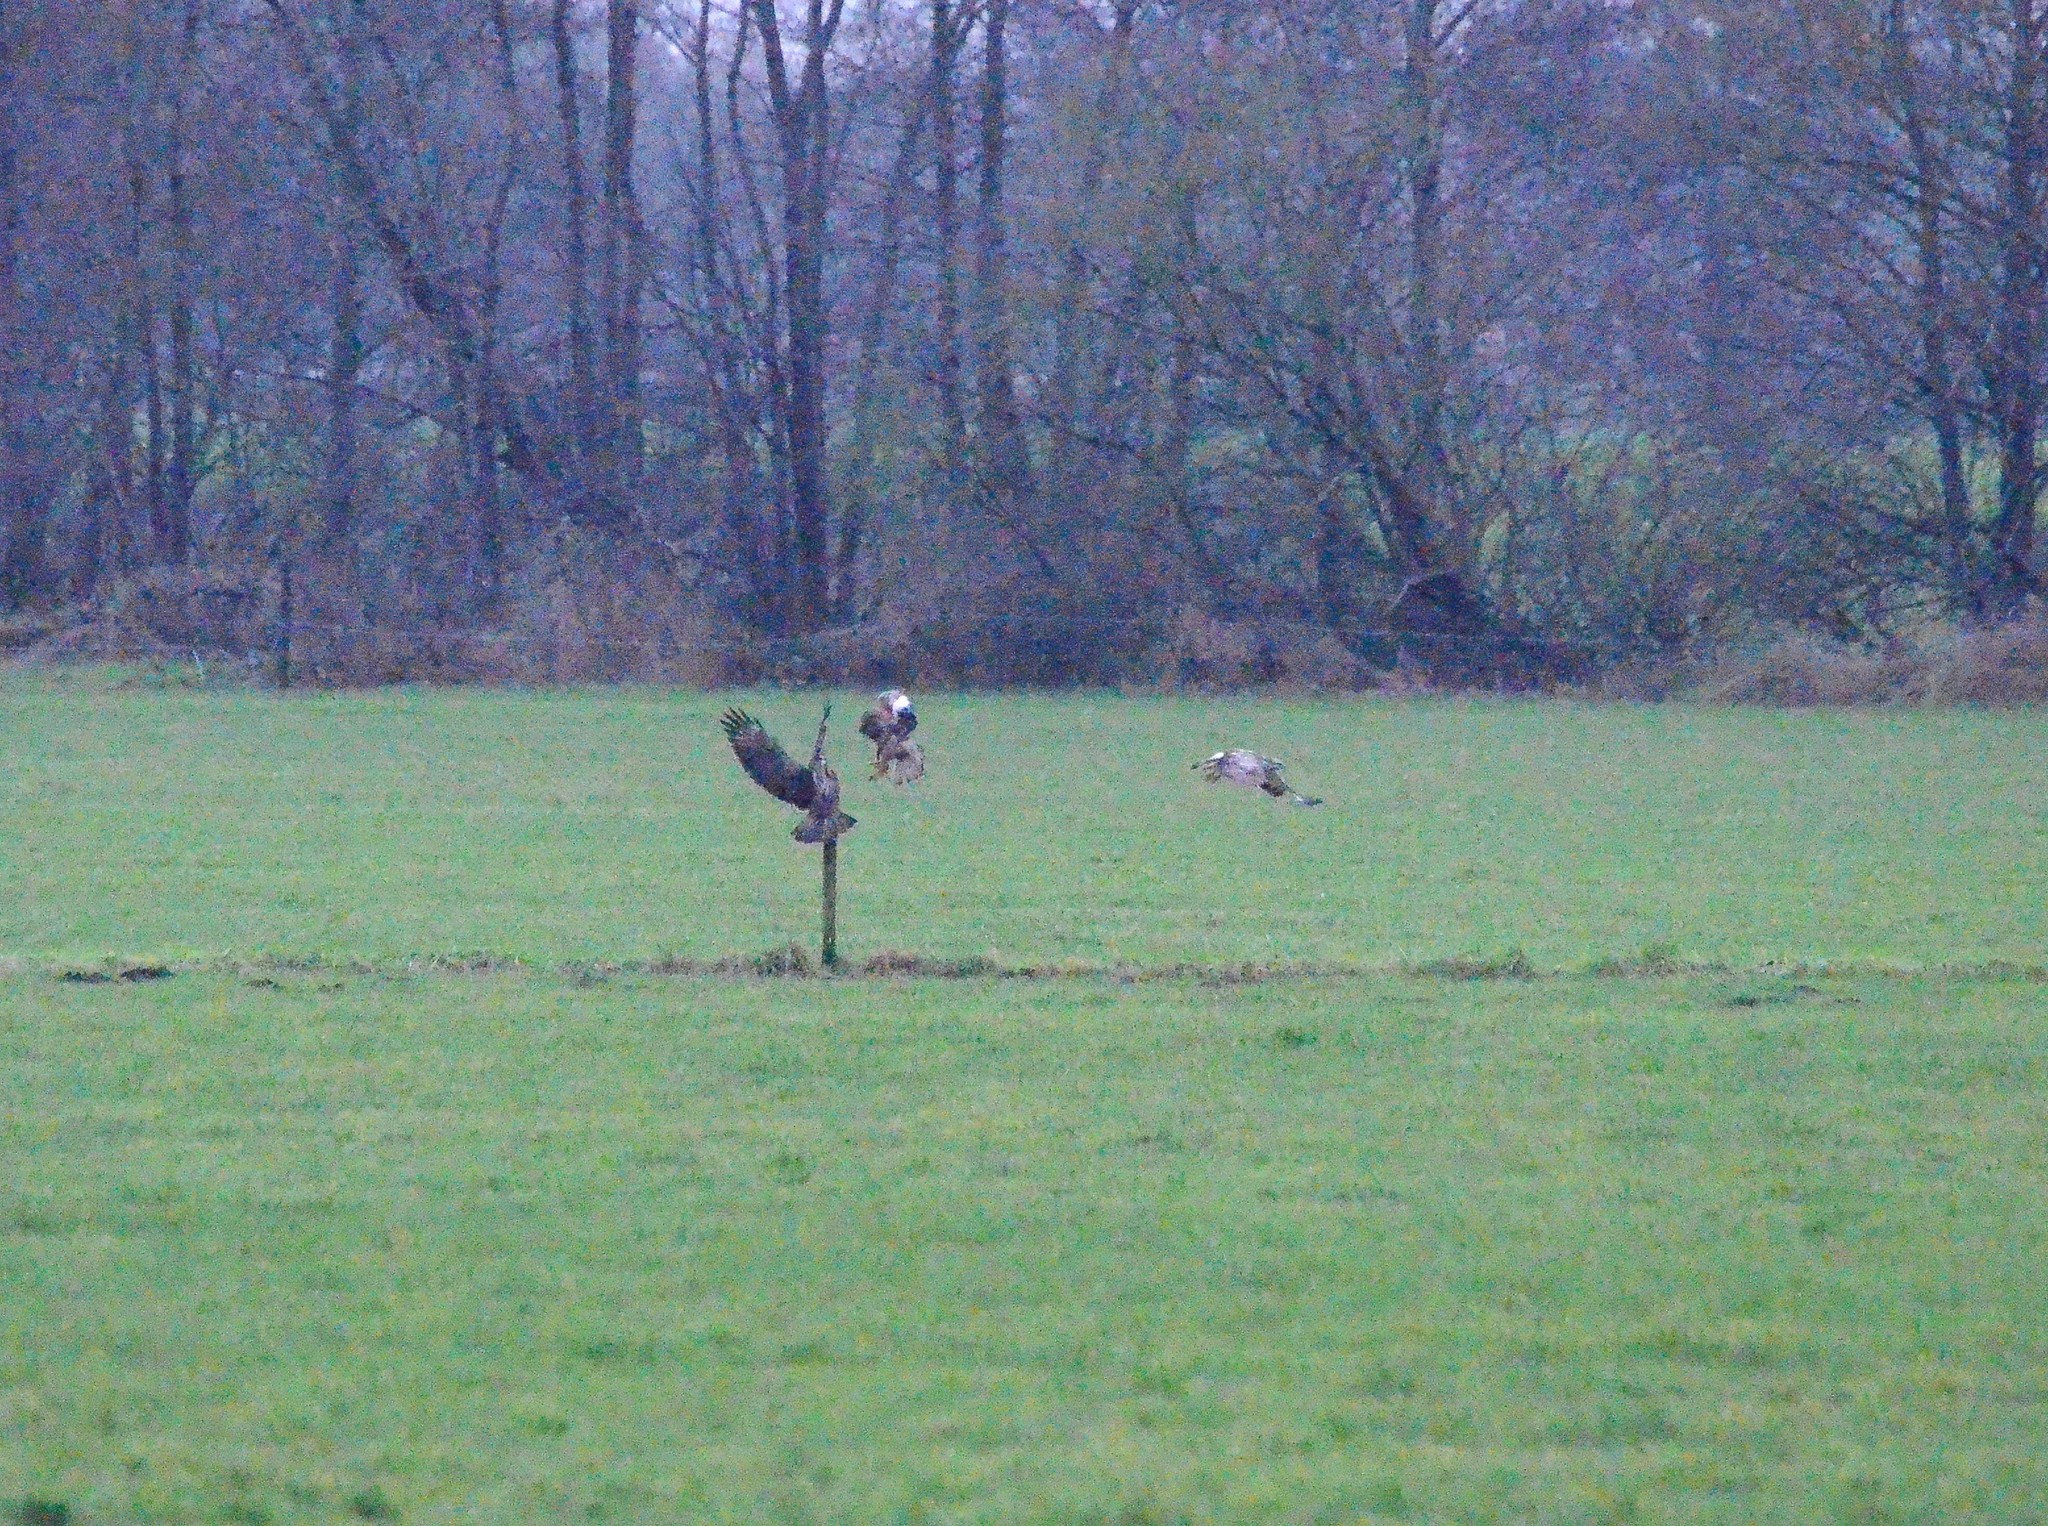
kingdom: Animalia
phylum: Chordata
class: Aves
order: Accipitriformes
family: Accipitridae
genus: Buteo
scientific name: Buteo buteo
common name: Common buzzard
